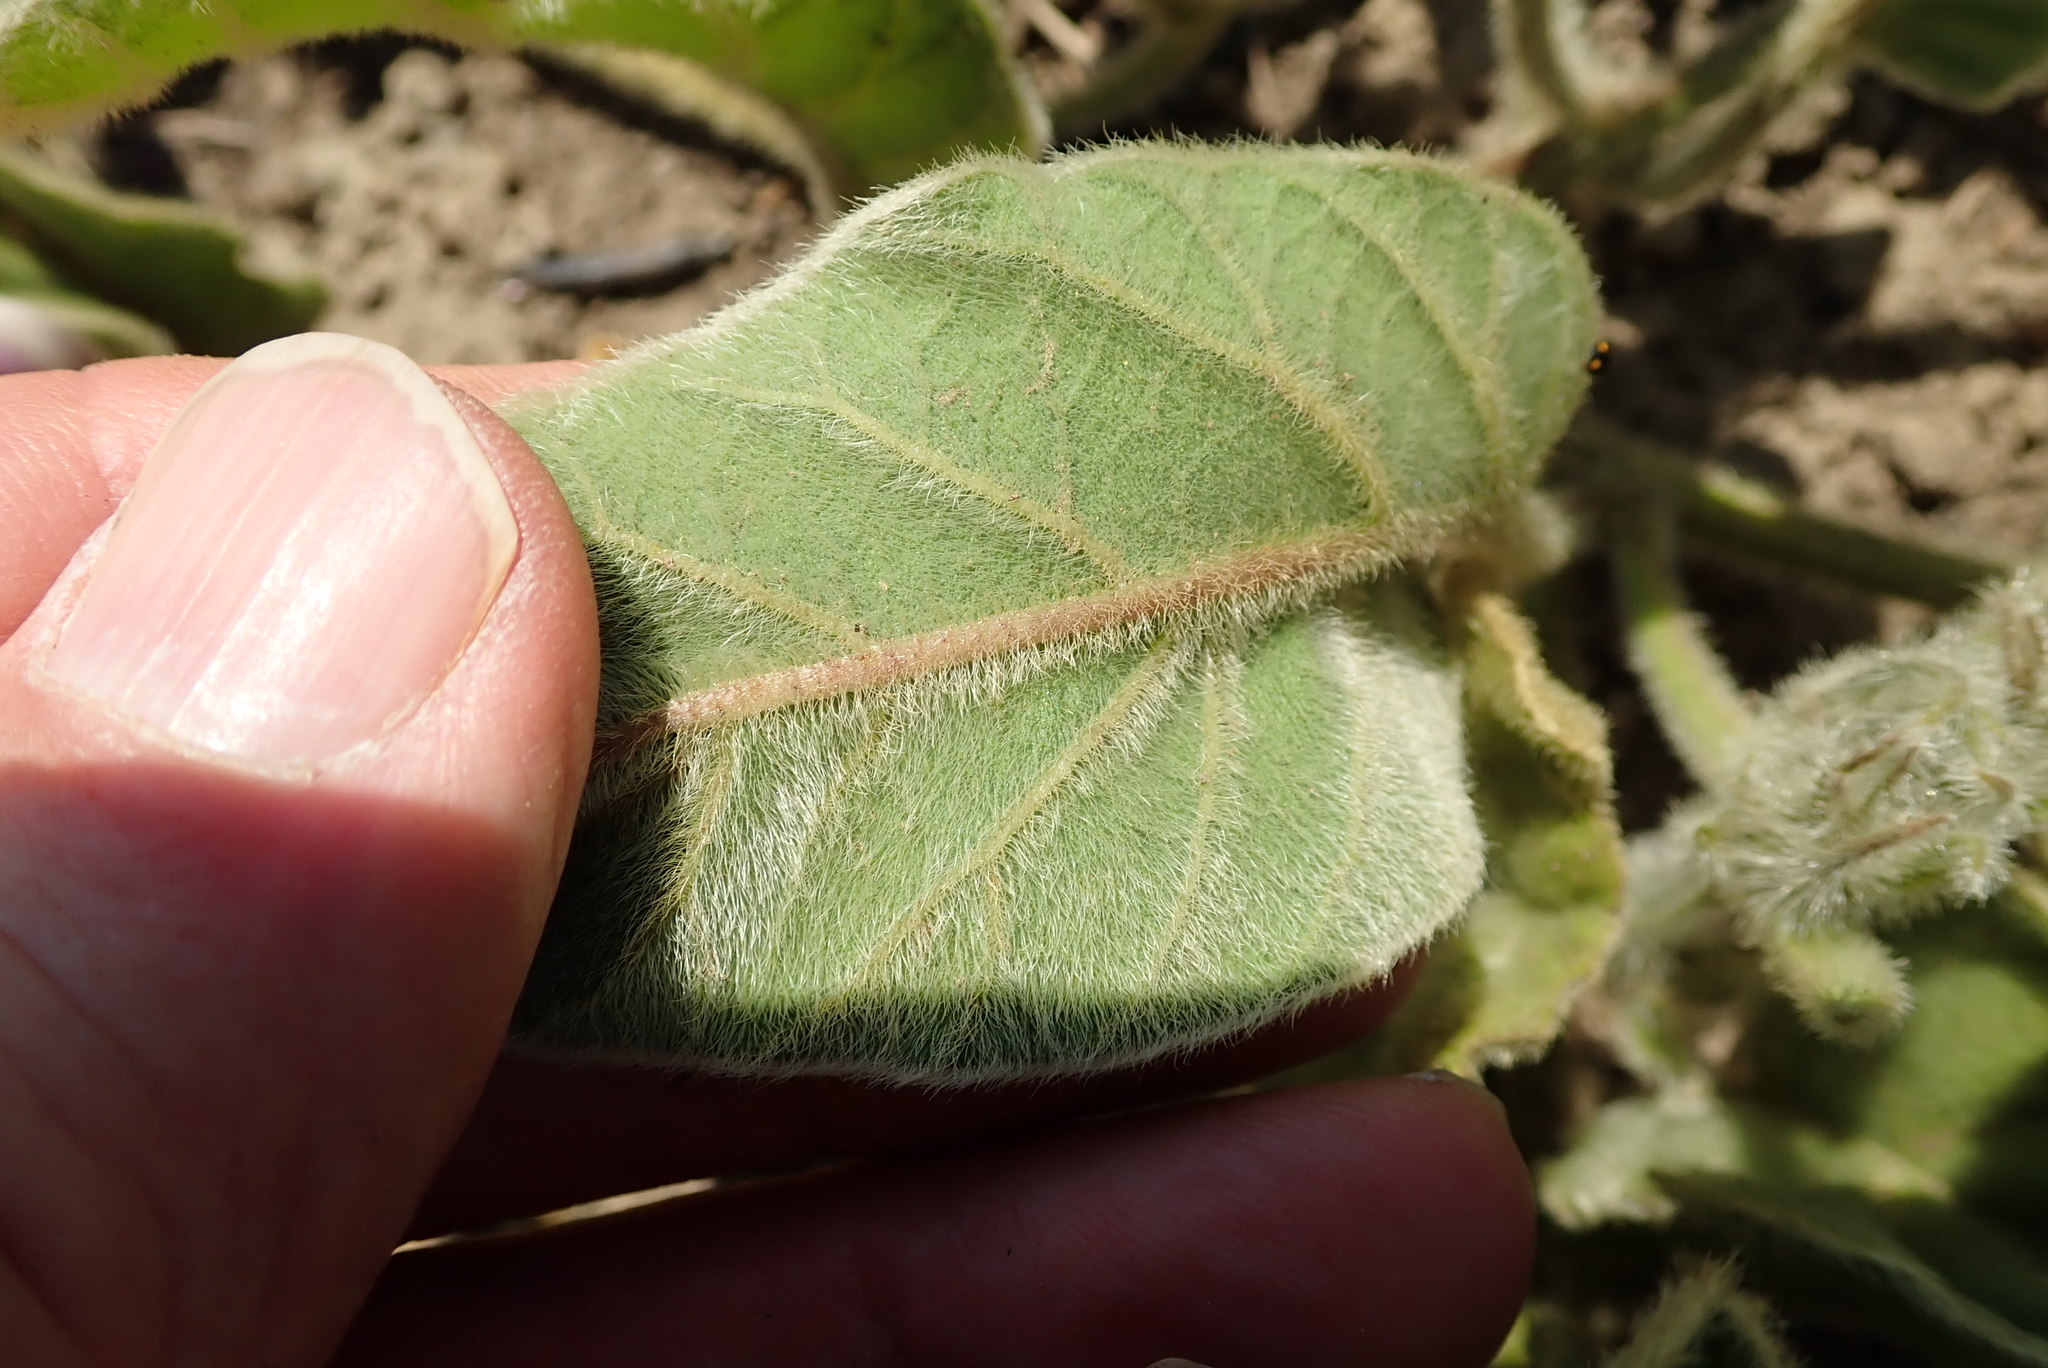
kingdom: Plantae
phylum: Tracheophyta
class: Magnoliopsida
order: Solanales
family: Convolvulaceae
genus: Ipomoea
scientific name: Ipomoea pellita
